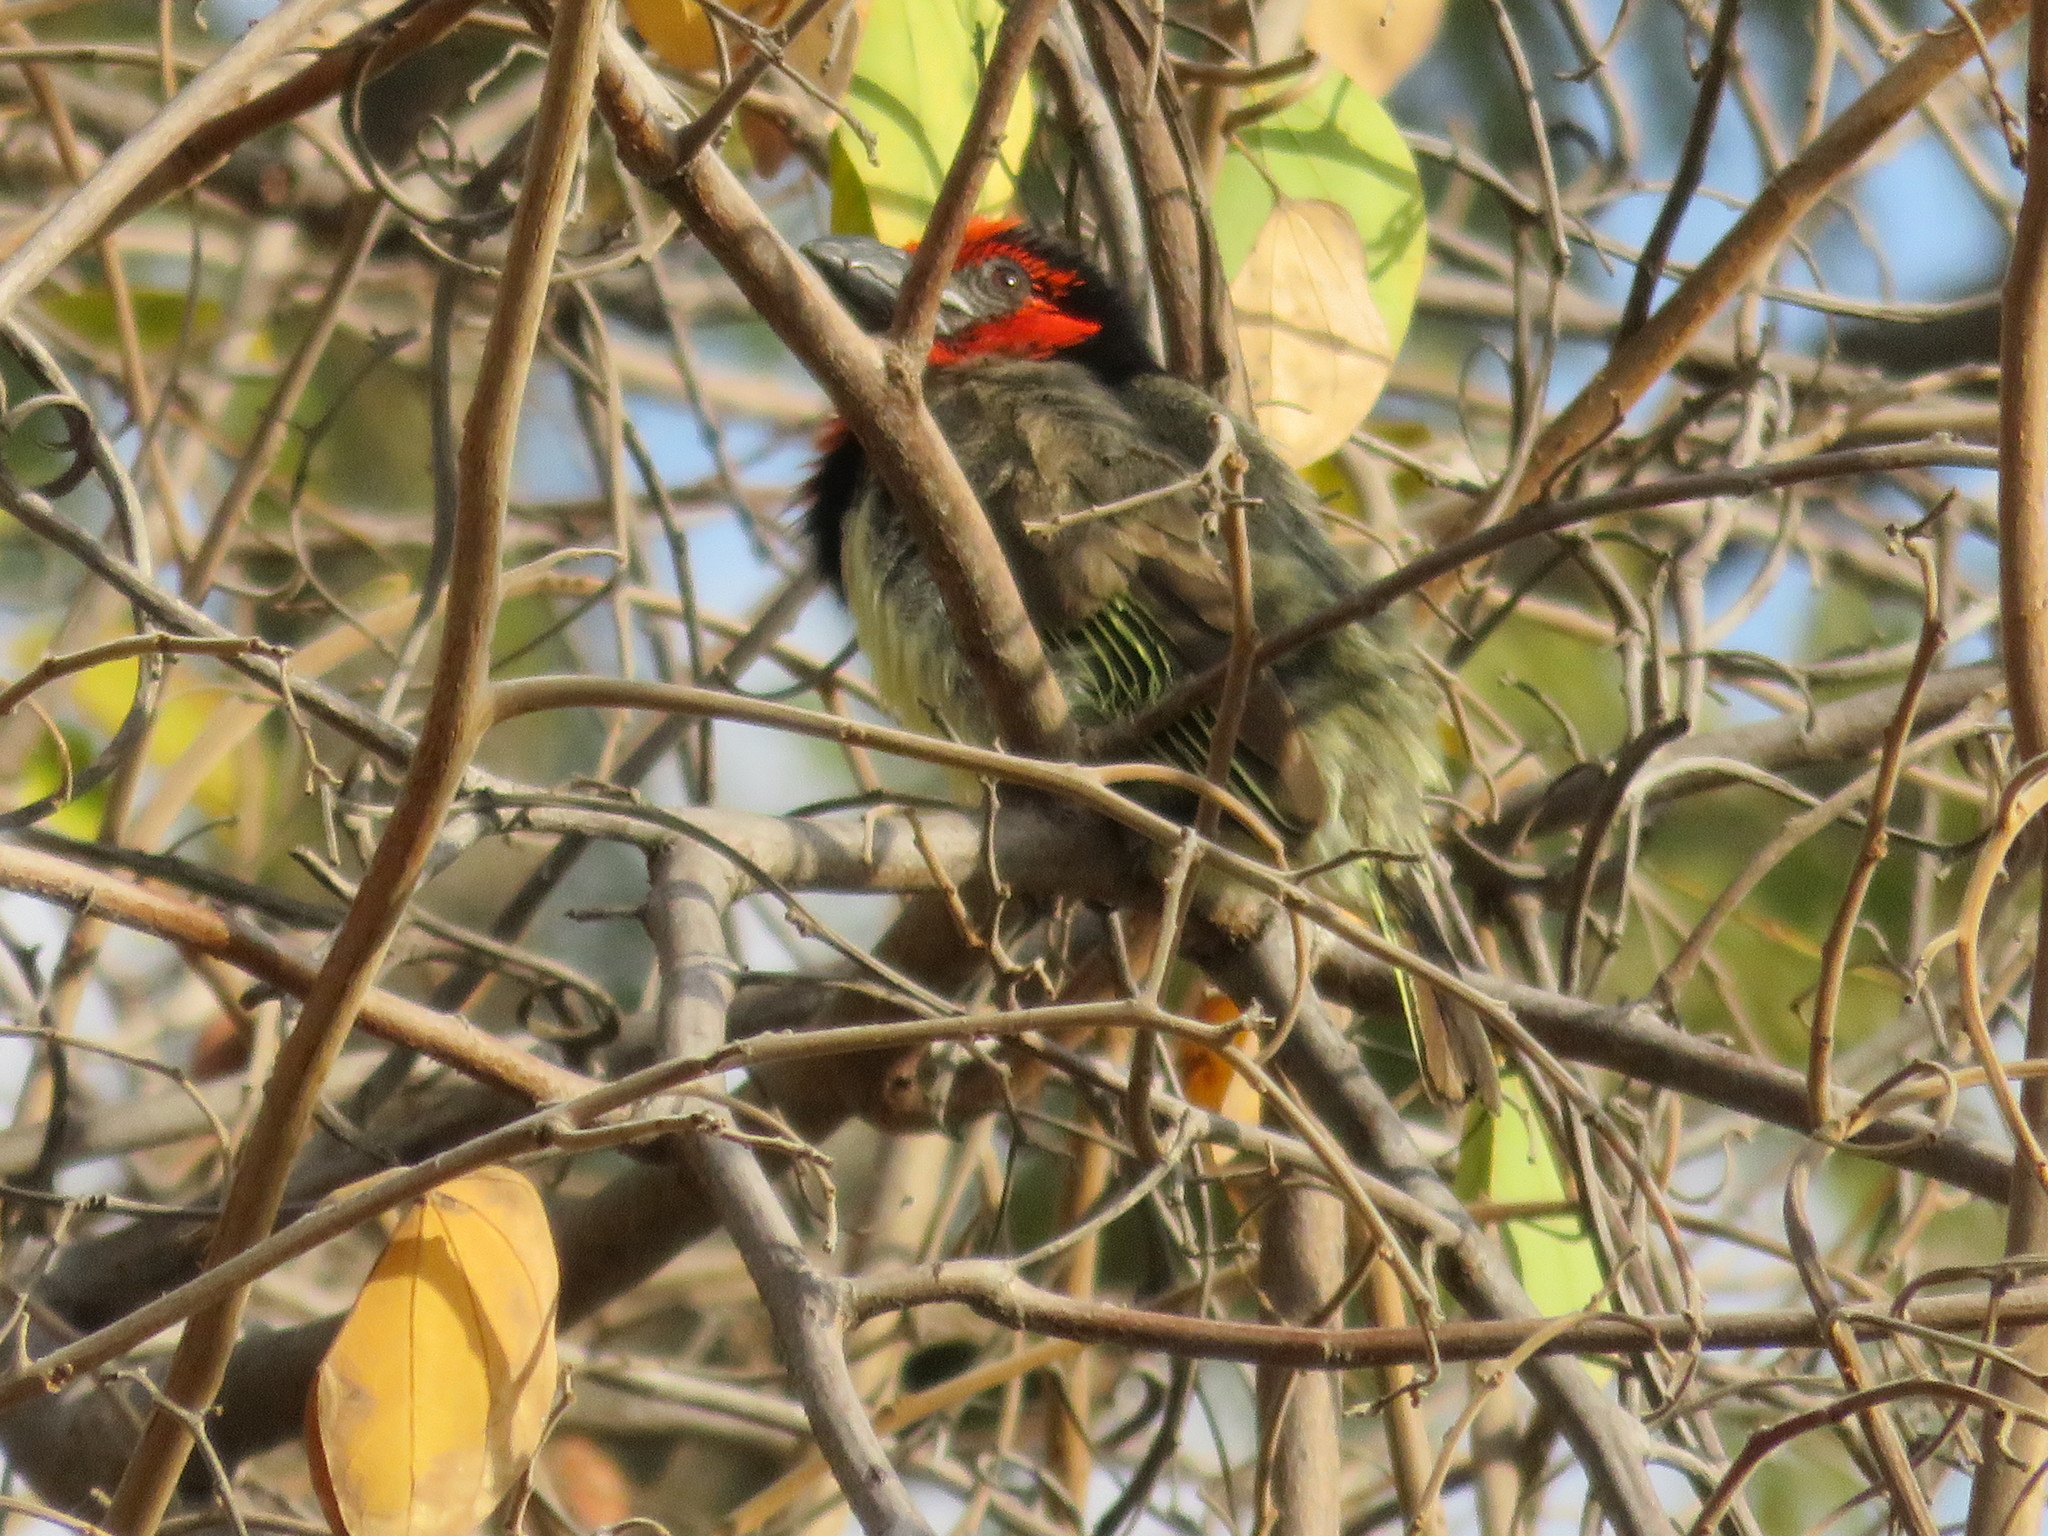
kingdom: Animalia
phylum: Chordata
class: Aves
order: Piciformes
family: Lybiidae
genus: Lybius
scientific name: Lybius torquatus
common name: Black-collared barbet
